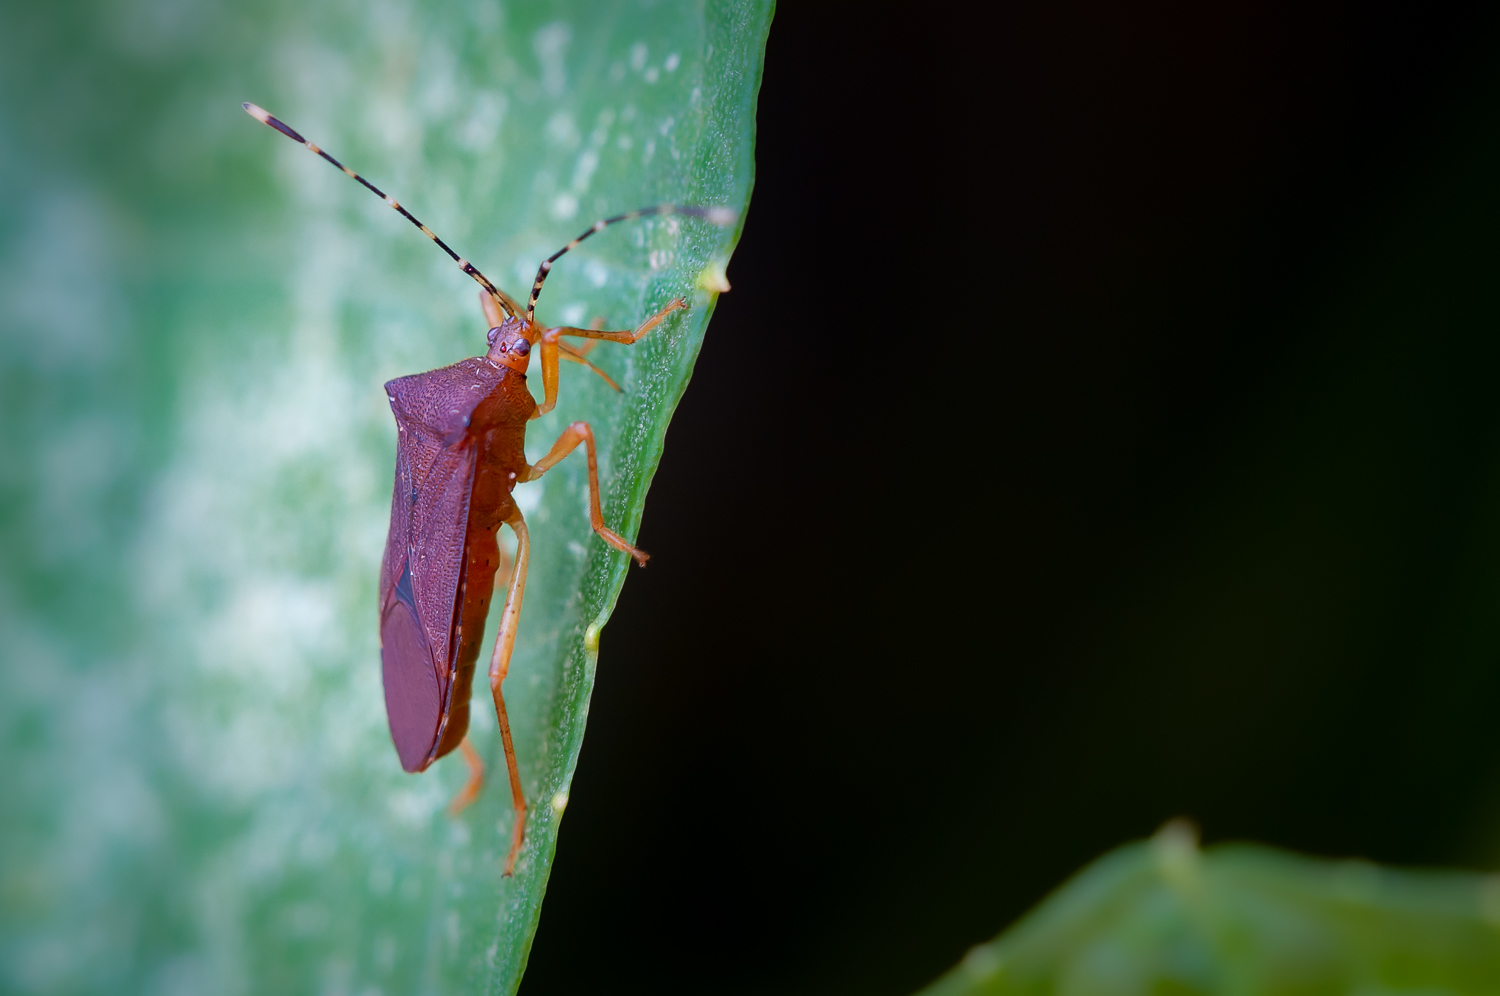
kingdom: Animalia
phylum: Arthropoda
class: Insecta
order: Hemiptera
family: Coreidae
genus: Anasa
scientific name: Anasa bellator
